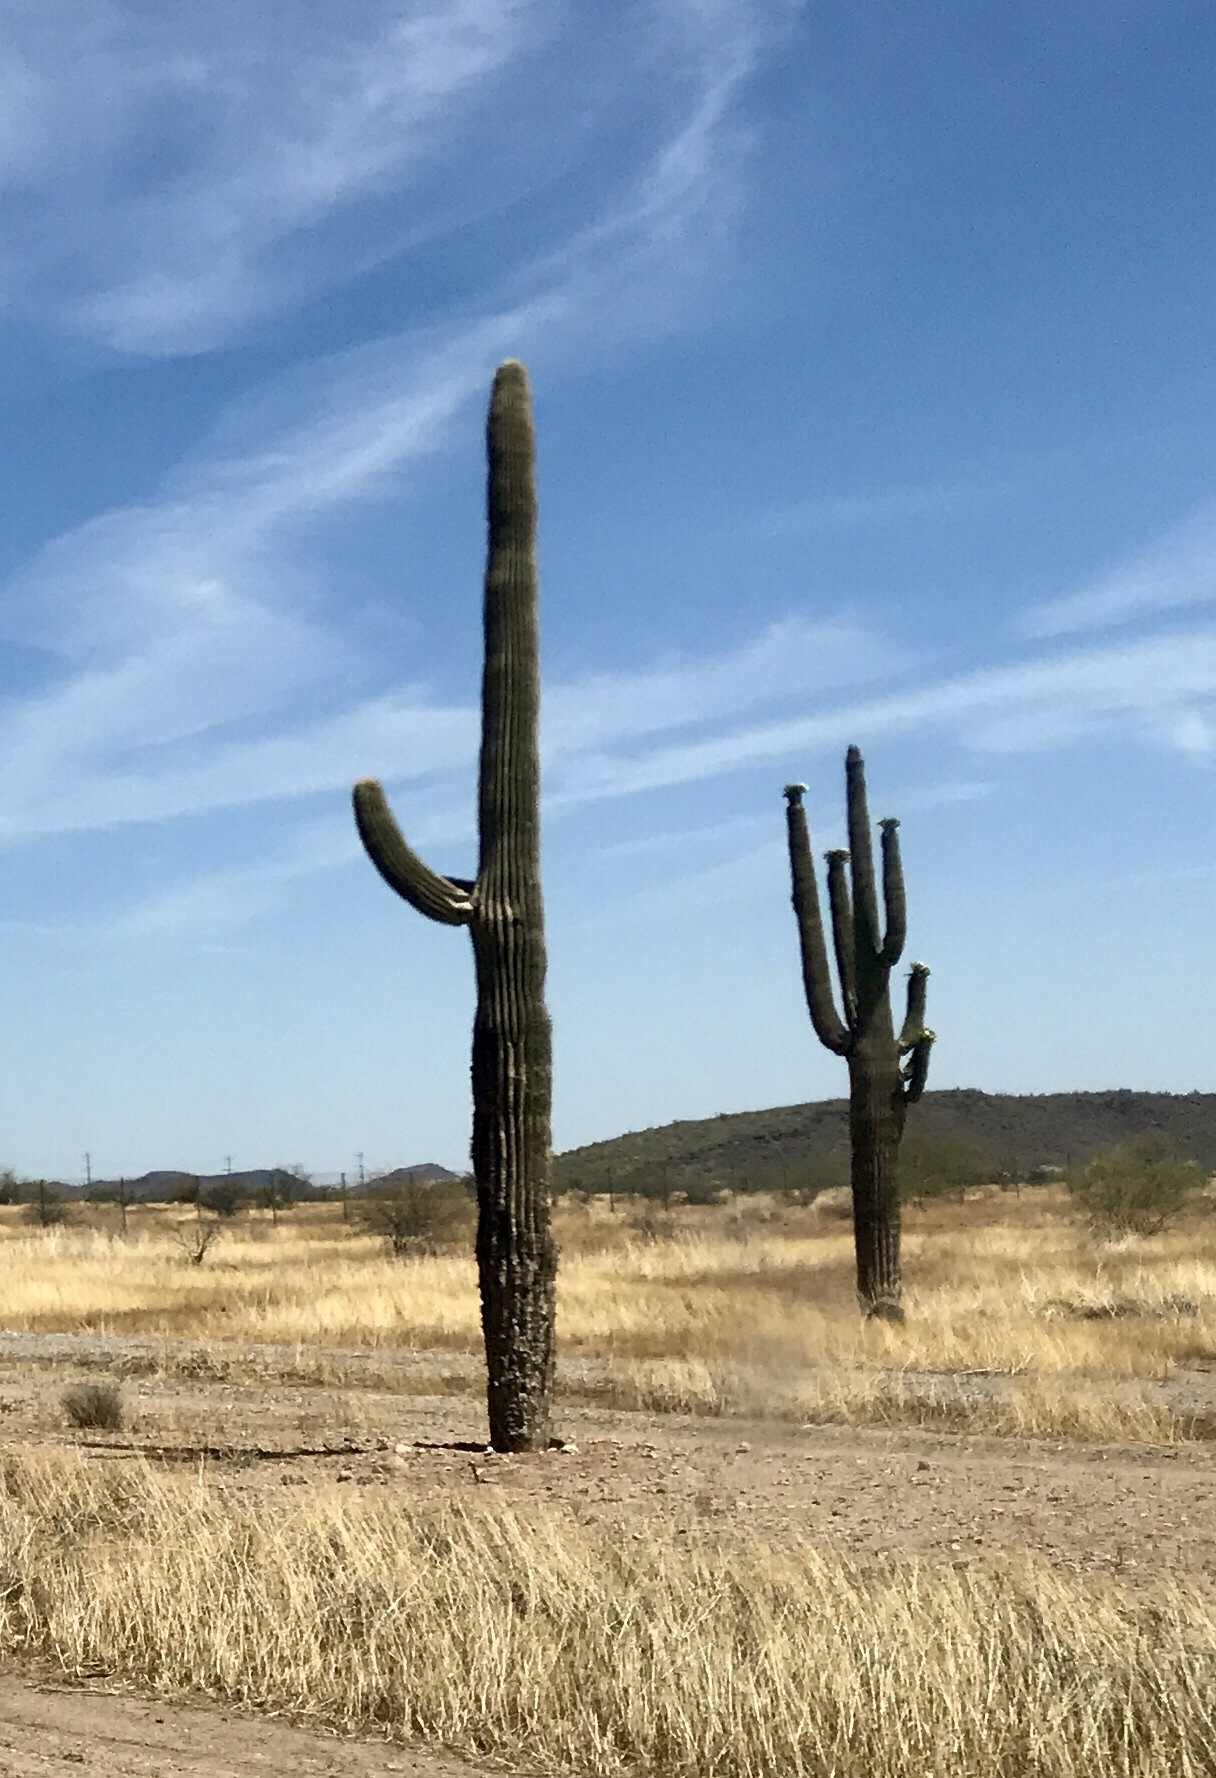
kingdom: Plantae
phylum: Tracheophyta
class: Magnoliopsida
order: Caryophyllales
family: Cactaceae
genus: Carnegiea
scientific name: Carnegiea gigantea
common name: Saguaro
